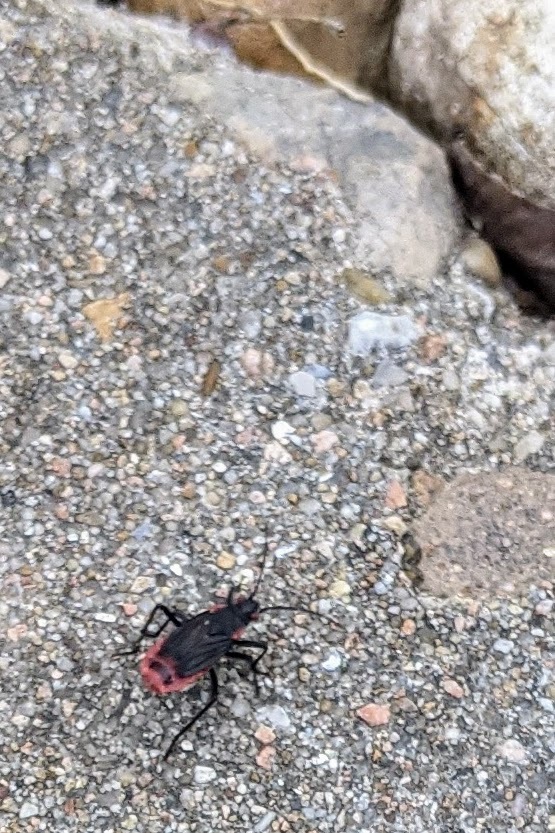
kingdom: Animalia
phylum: Arthropoda
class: Insecta
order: Hemiptera
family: Rhopalidae
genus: Jadera
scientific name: Jadera haematoloma
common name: Red-shouldered bug
